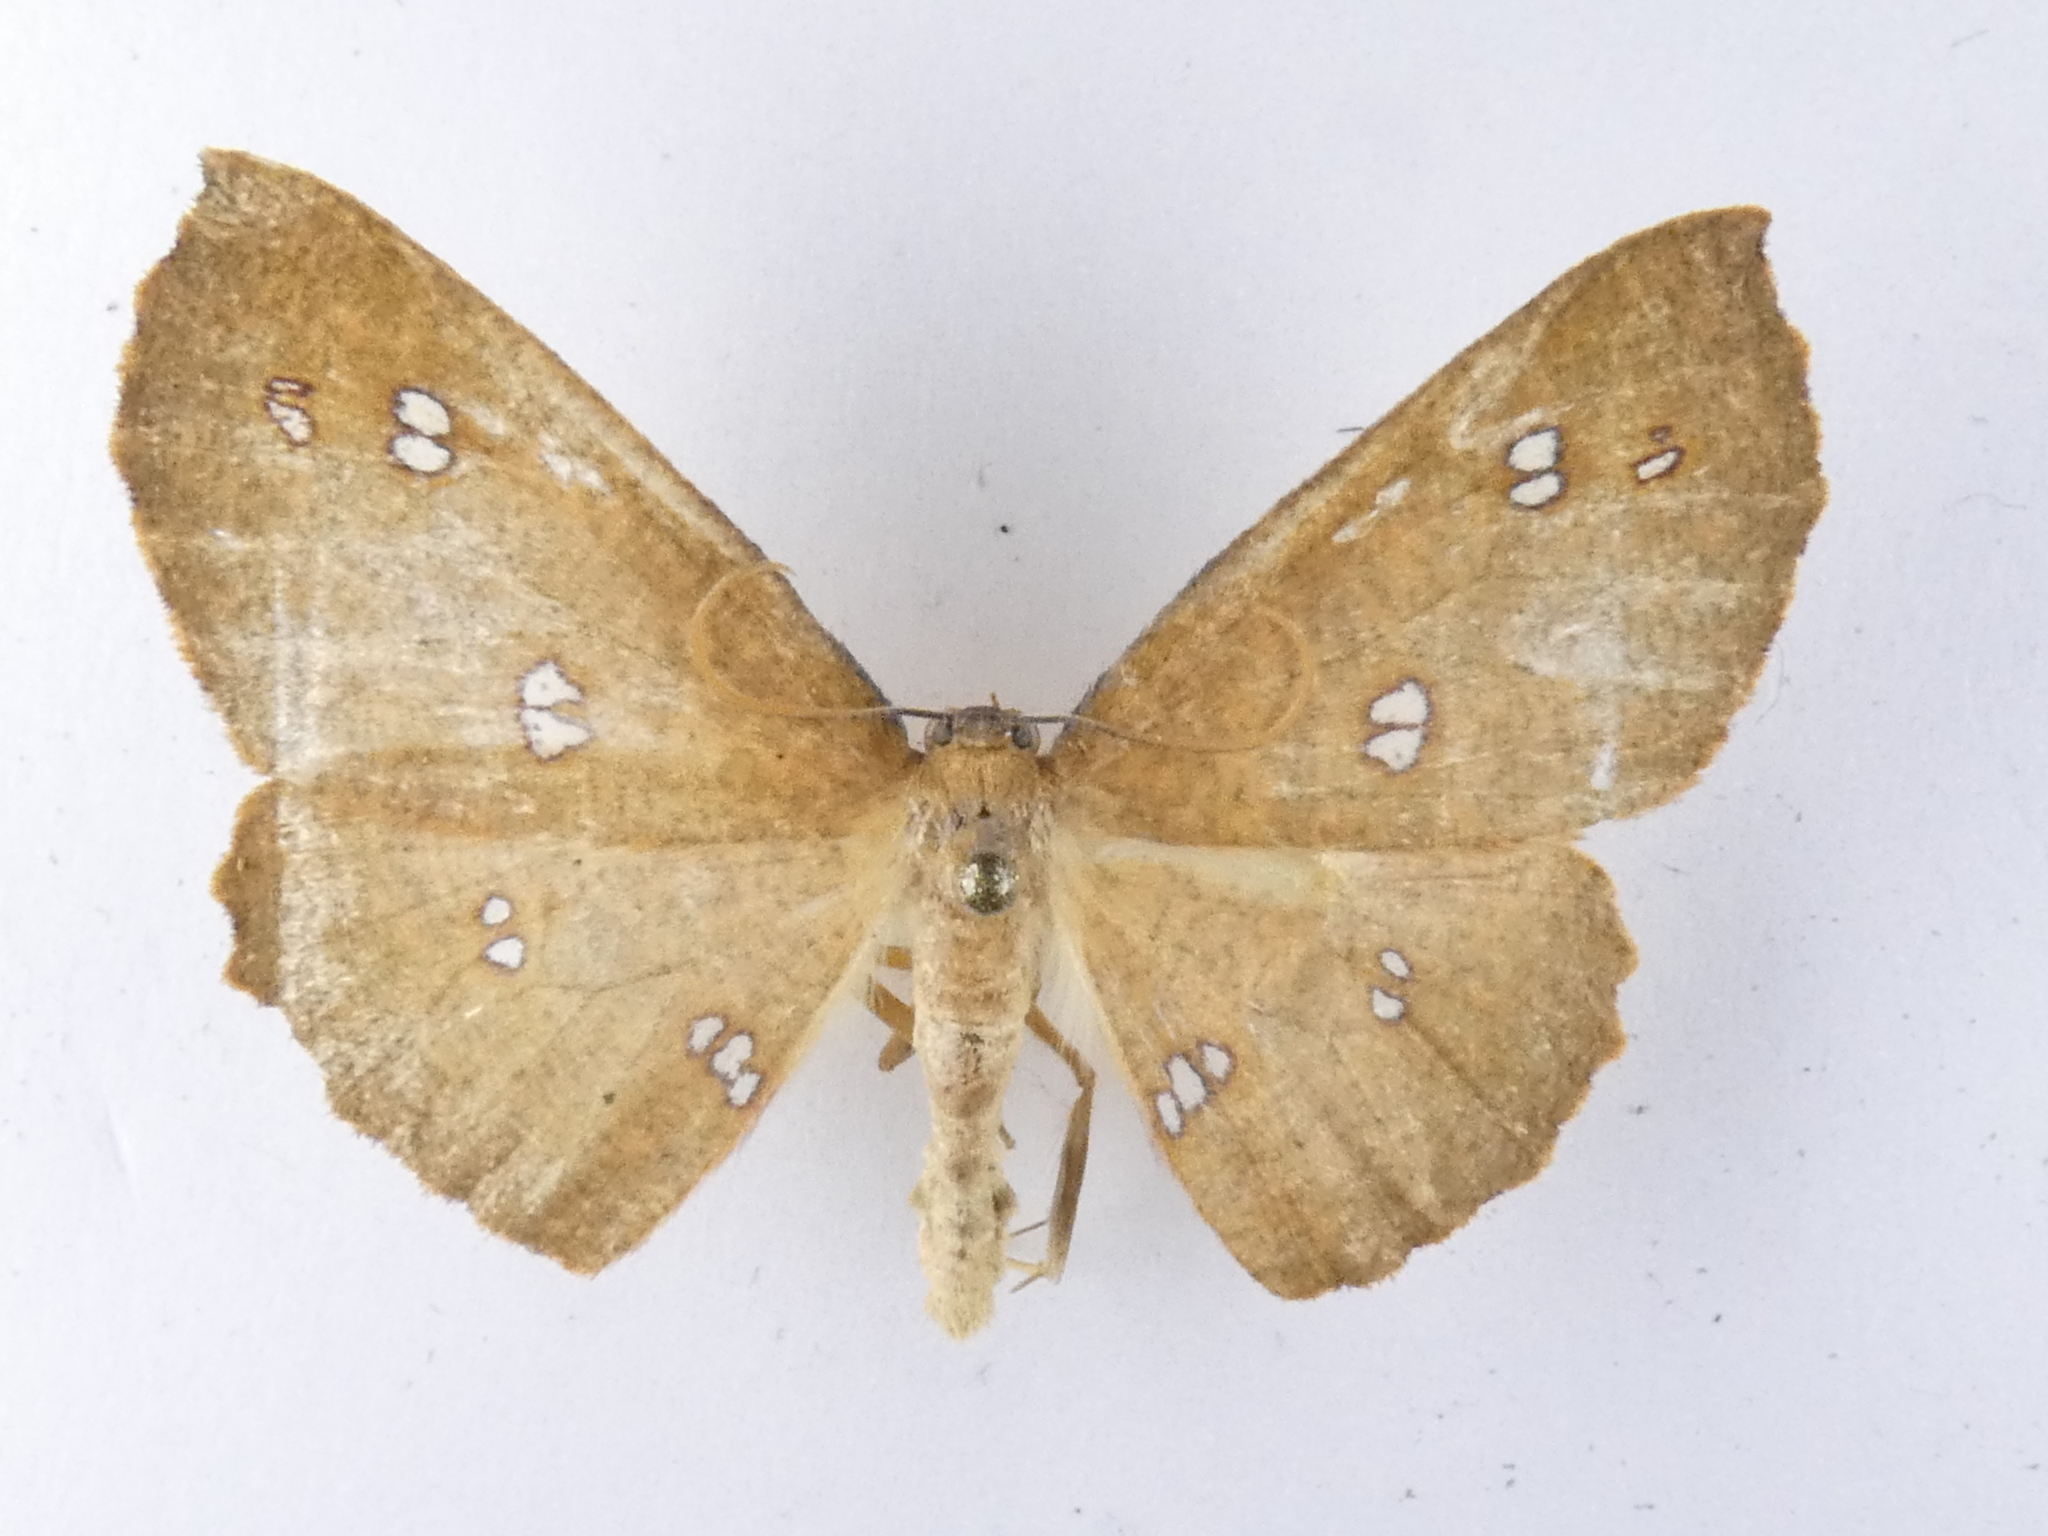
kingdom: Animalia
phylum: Arthropoda
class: Insecta
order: Lepidoptera
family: Geometridae
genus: Xyridacma
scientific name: Xyridacma alectoraria
